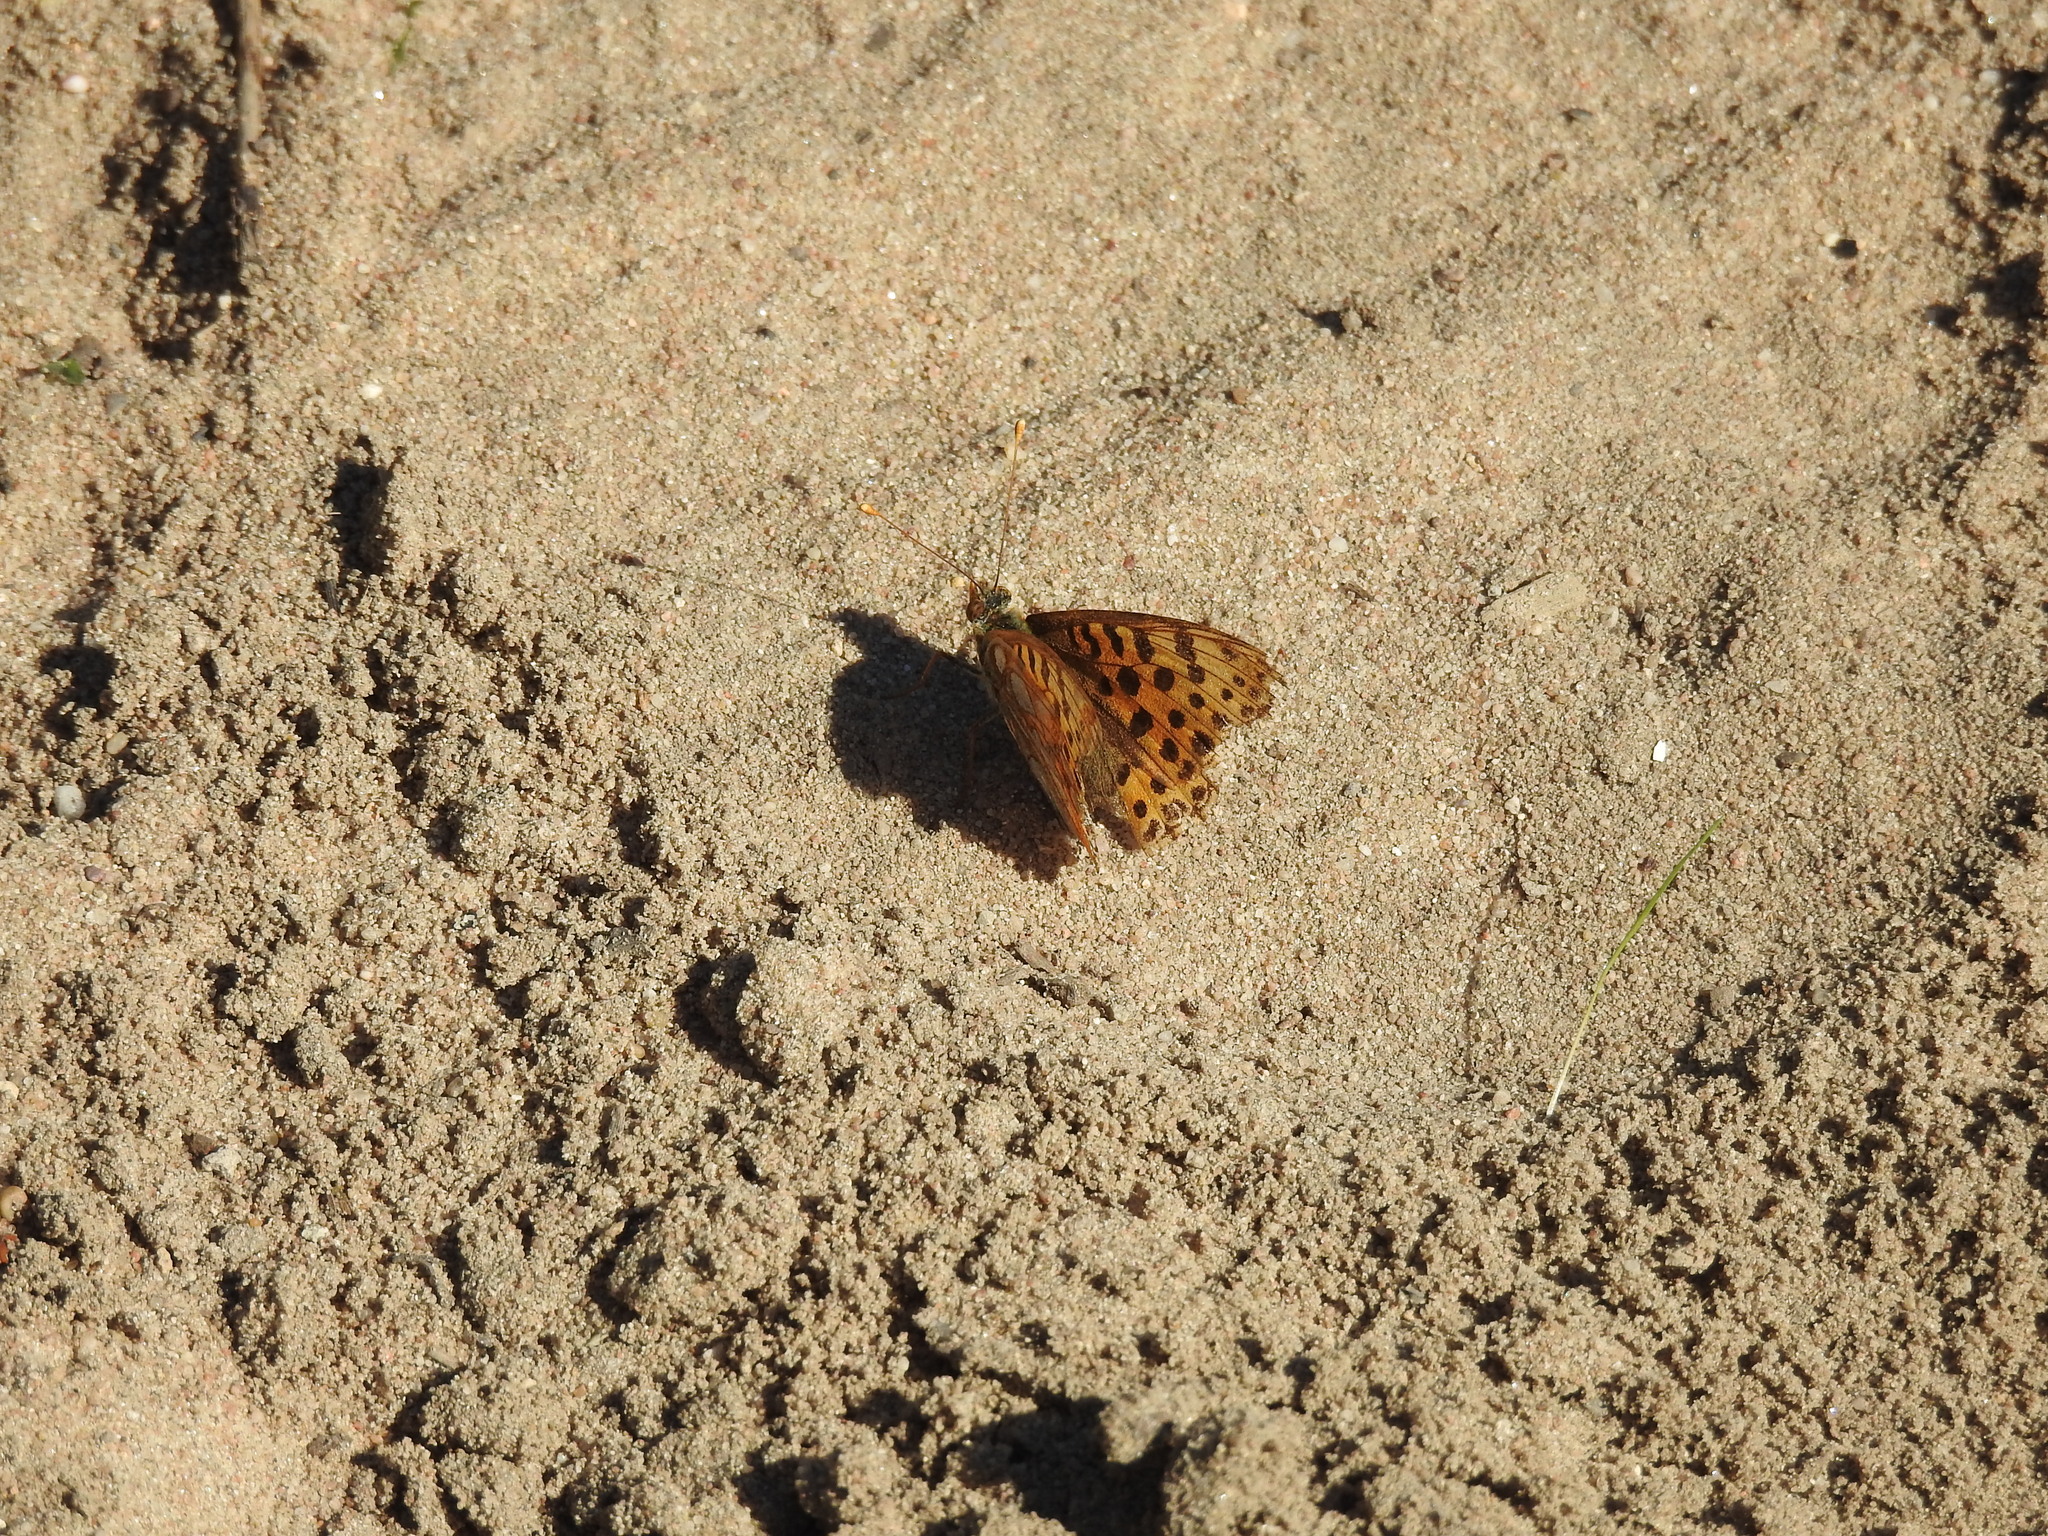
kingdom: Animalia
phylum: Arthropoda
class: Insecta
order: Lepidoptera
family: Nymphalidae
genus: Issoria
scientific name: Issoria lathonia
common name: Queen of spain fritillary
